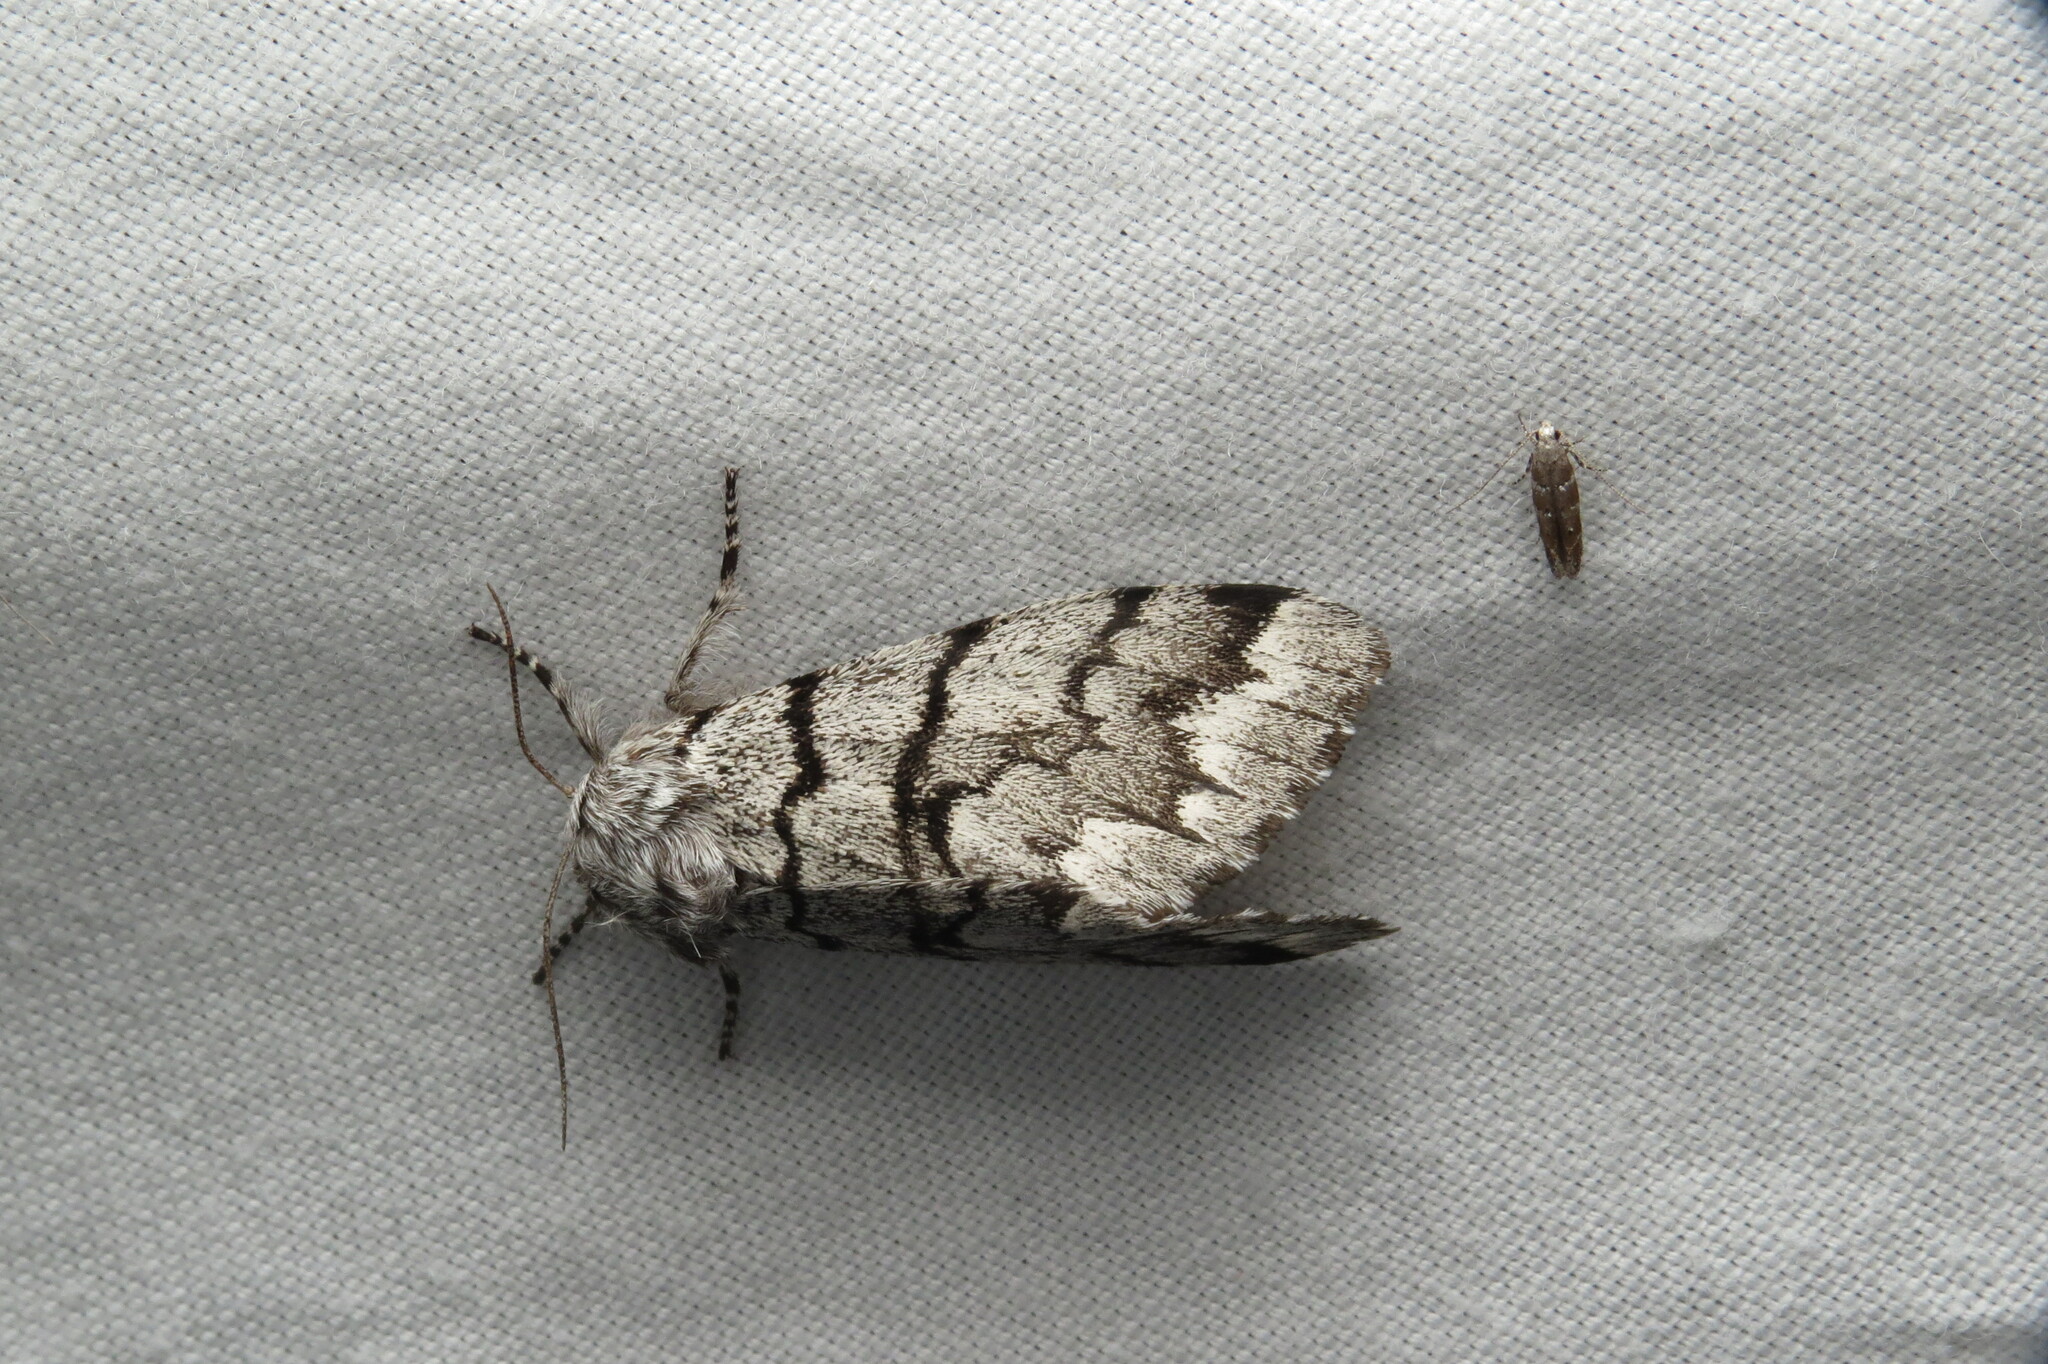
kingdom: Animalia
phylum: Arthropoda
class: Insecta
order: Lepidoptera
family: Noctuidae
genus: Panthea
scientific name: Panthea furcilla
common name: Eastern panthea moth
